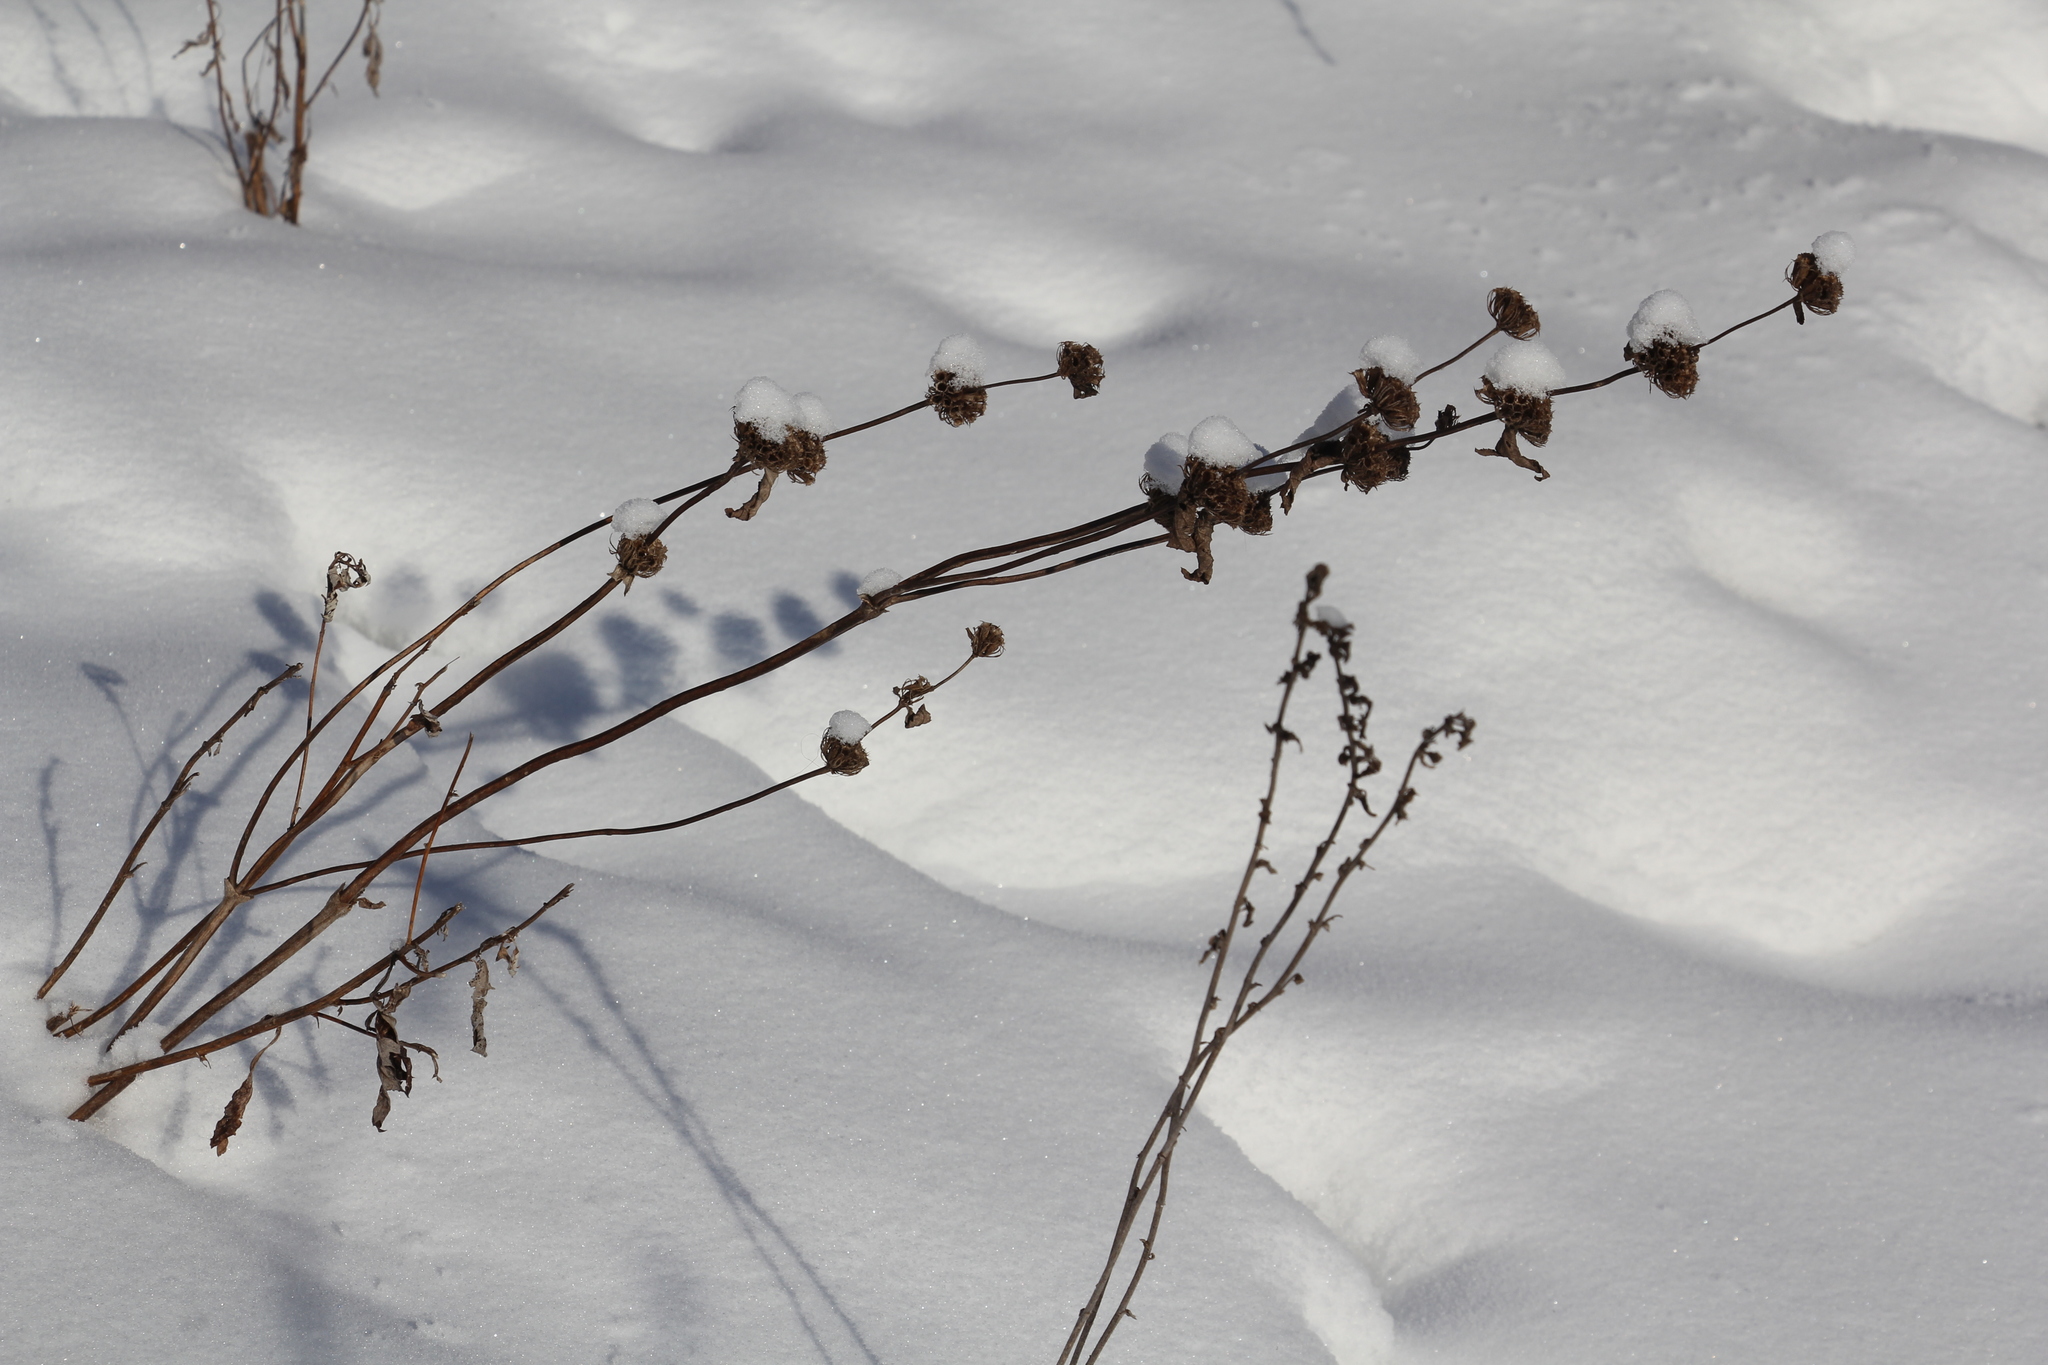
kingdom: Plantae
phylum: Tracheophyta
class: Magnoliopsida
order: Lamiales
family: Lamiaceae
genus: Phlomoides
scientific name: Phlomoides tuberosa
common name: Tuberous jerusalem sage
